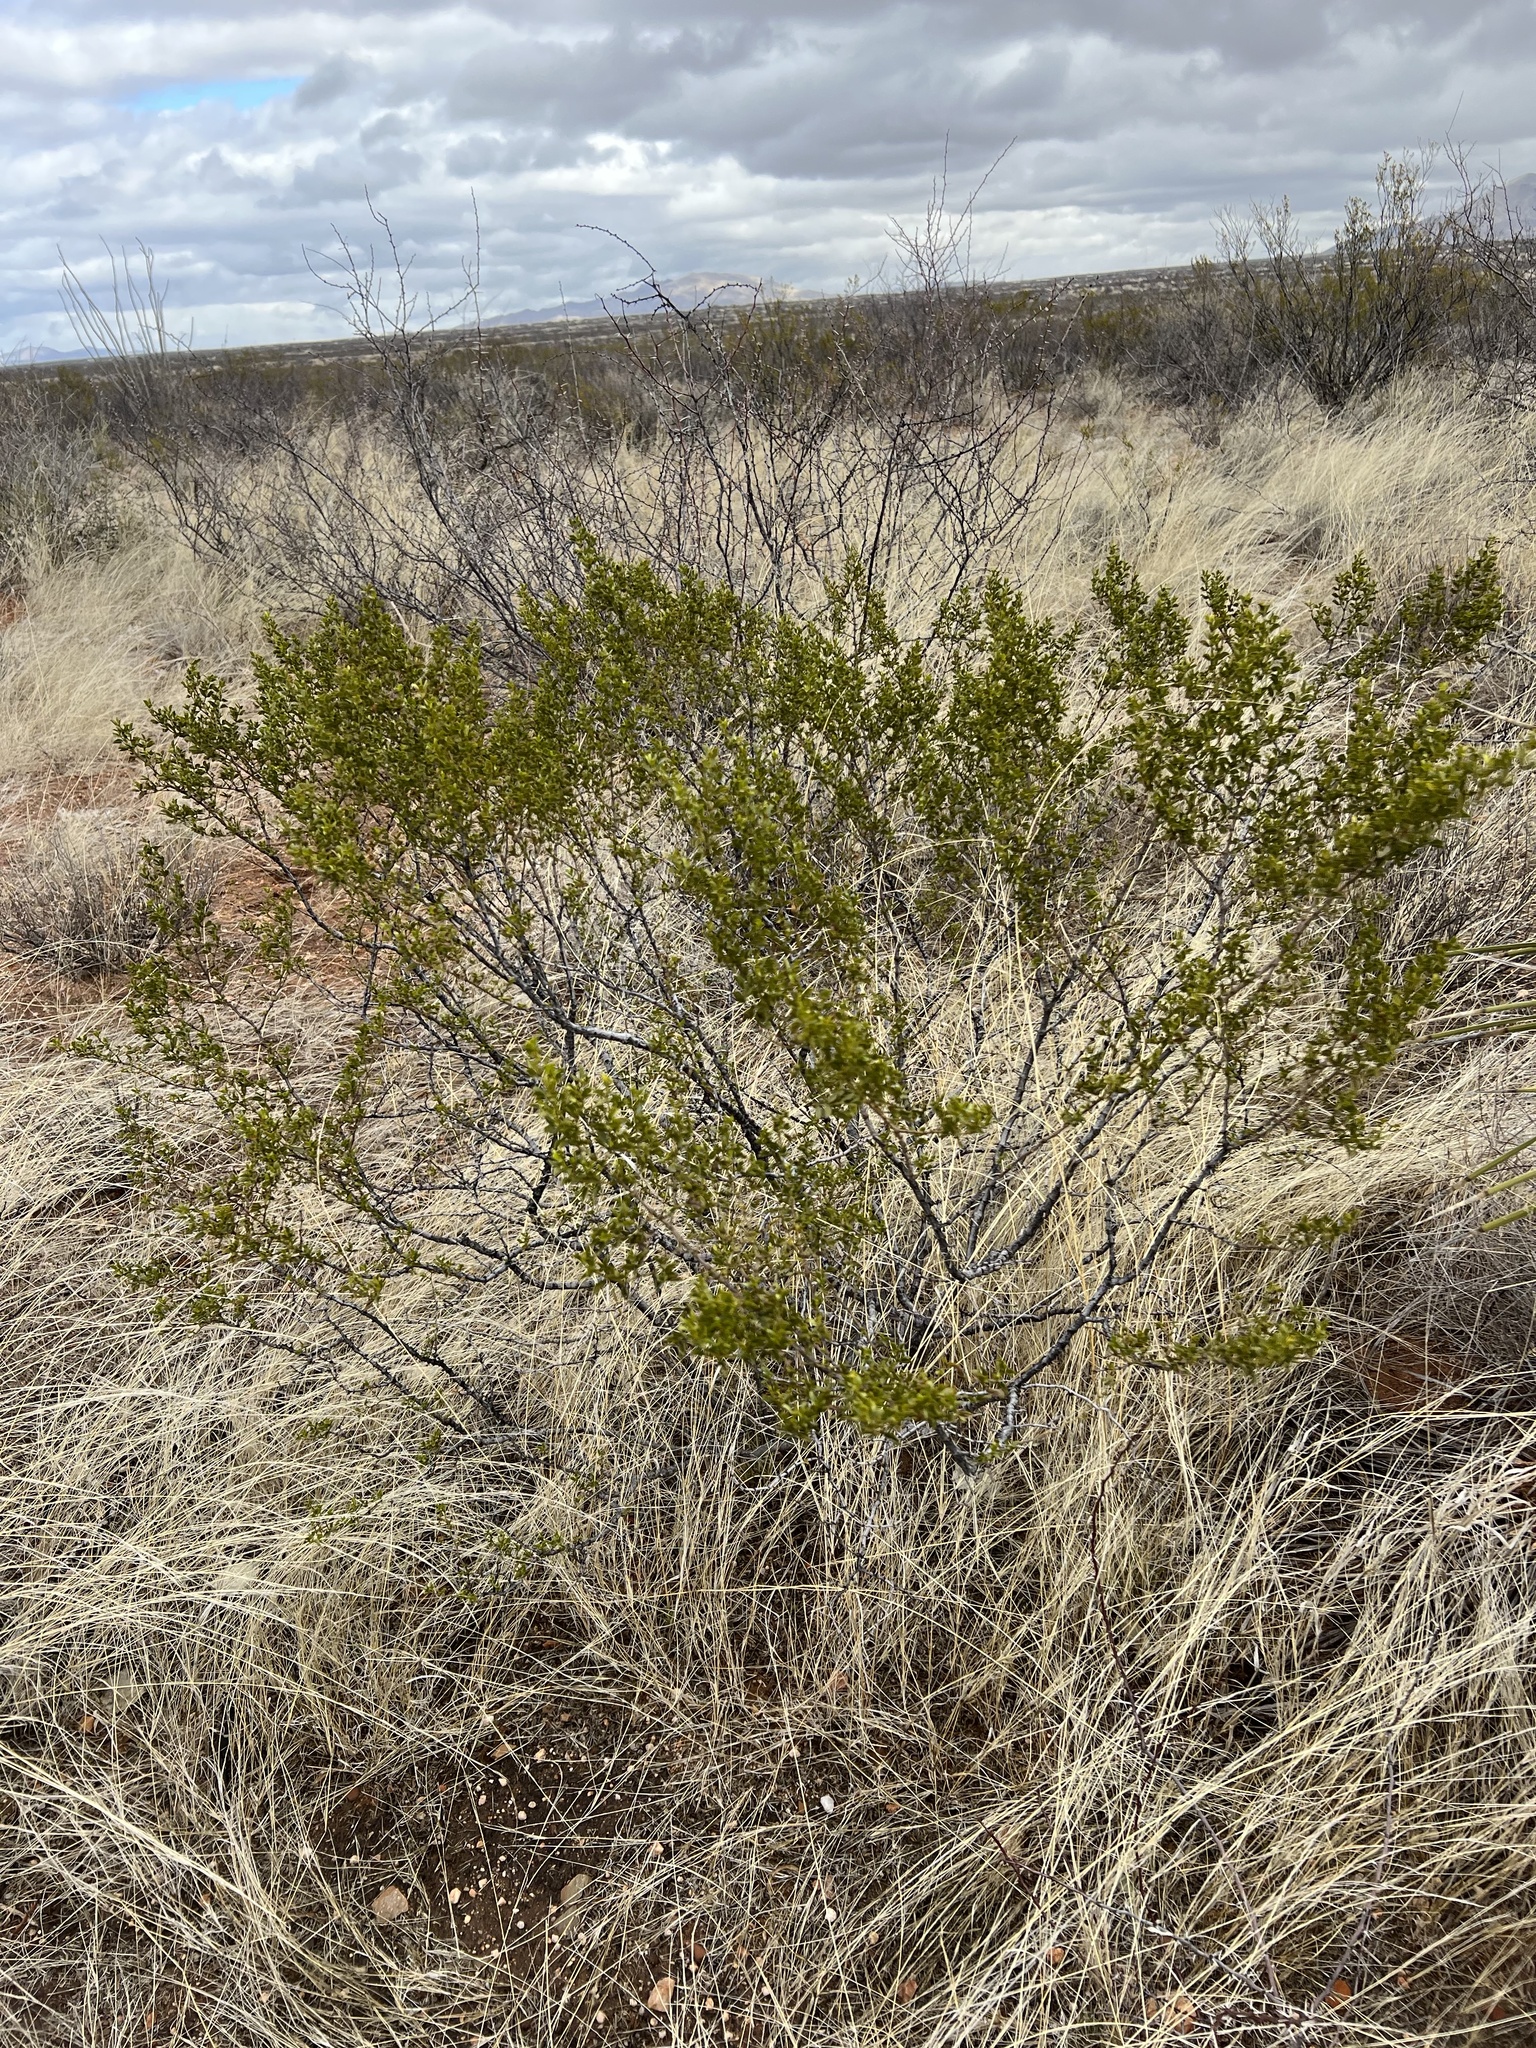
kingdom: Plantae
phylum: Tracheophyta
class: Magnoliopsida
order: Zygophyllales
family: Zygophyllaceae
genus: Larrea
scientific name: Larrea tridentata
